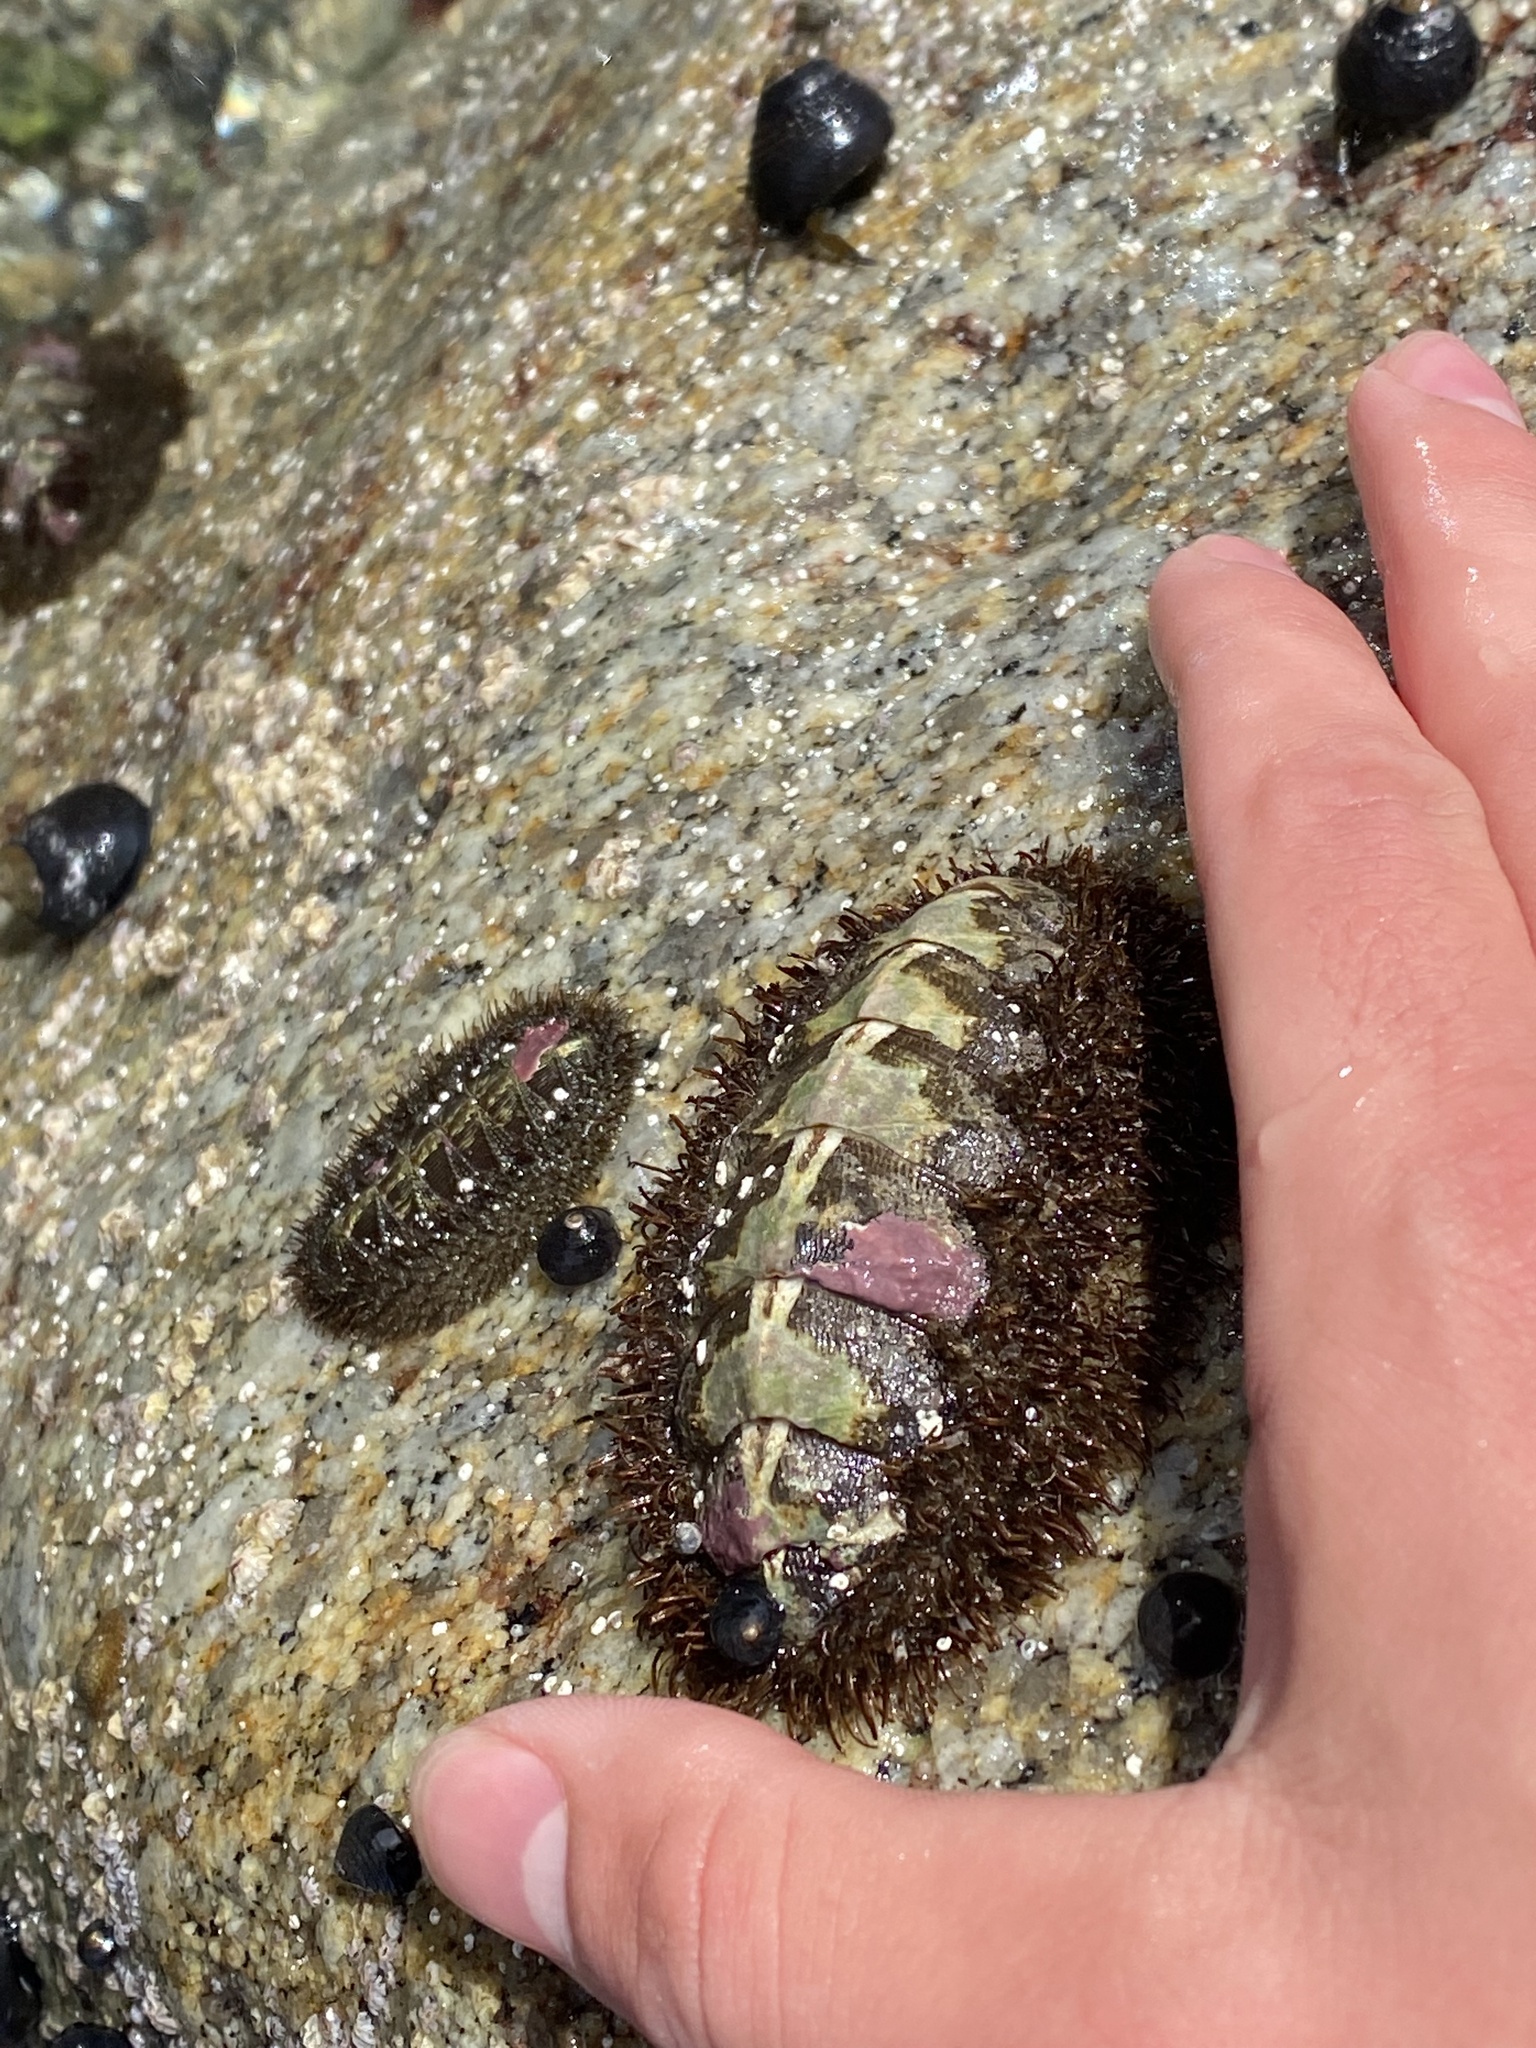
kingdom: Animalia
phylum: Mollusca
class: Polyplacophora
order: Chitonida
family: Mopaliidae
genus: Mopalia
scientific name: Mopalia muscosa
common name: Mossy chiton
